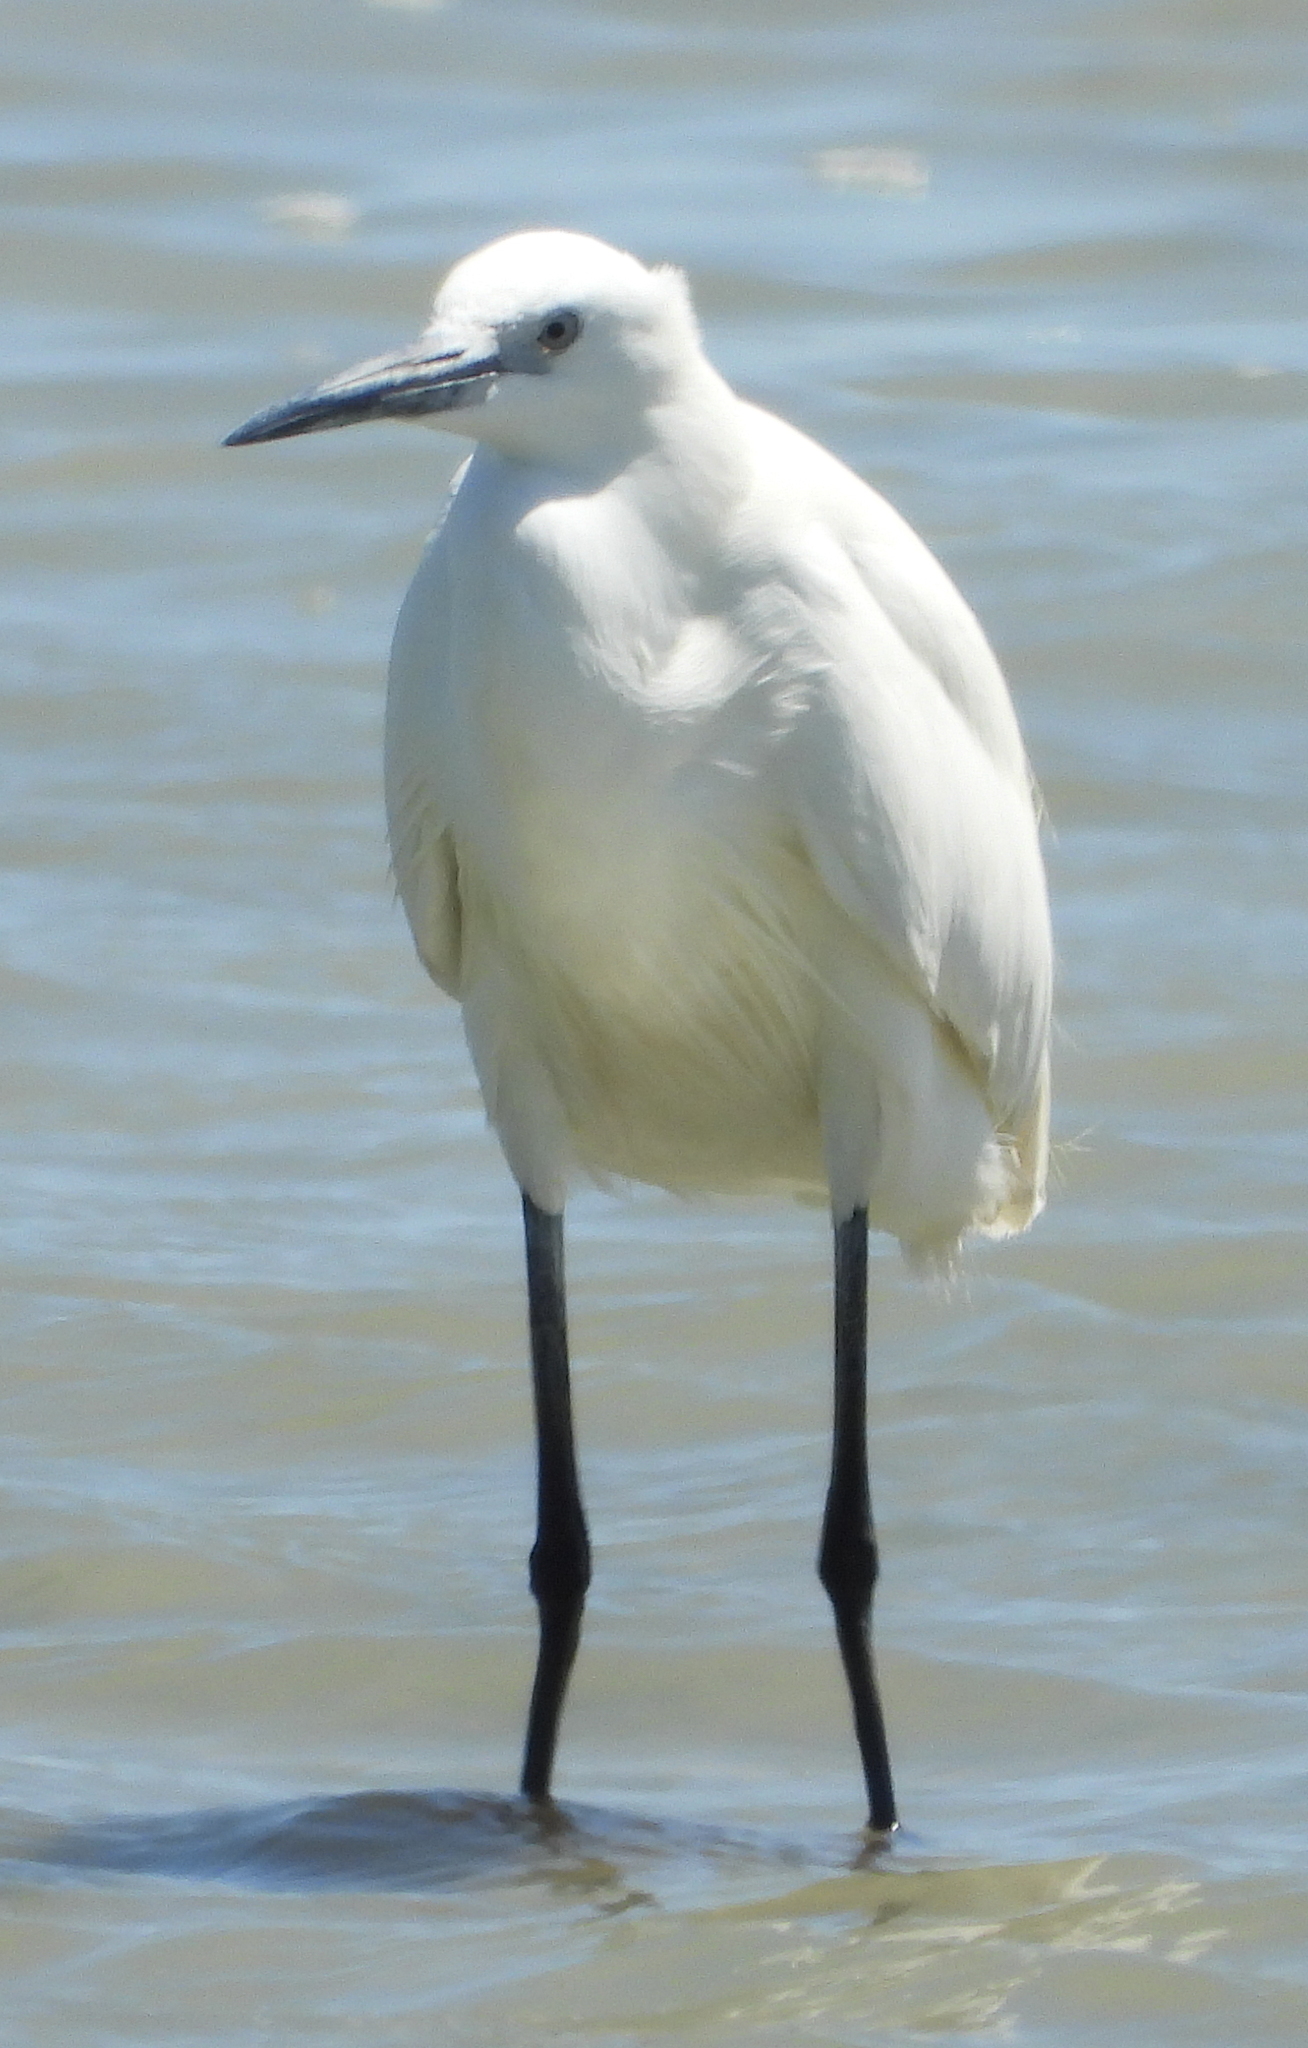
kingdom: Animalia
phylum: Chordata
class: Aves
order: Pelecaniformes
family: Ardeidae
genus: Egretta
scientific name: Egretta garzetta
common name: Little egret
